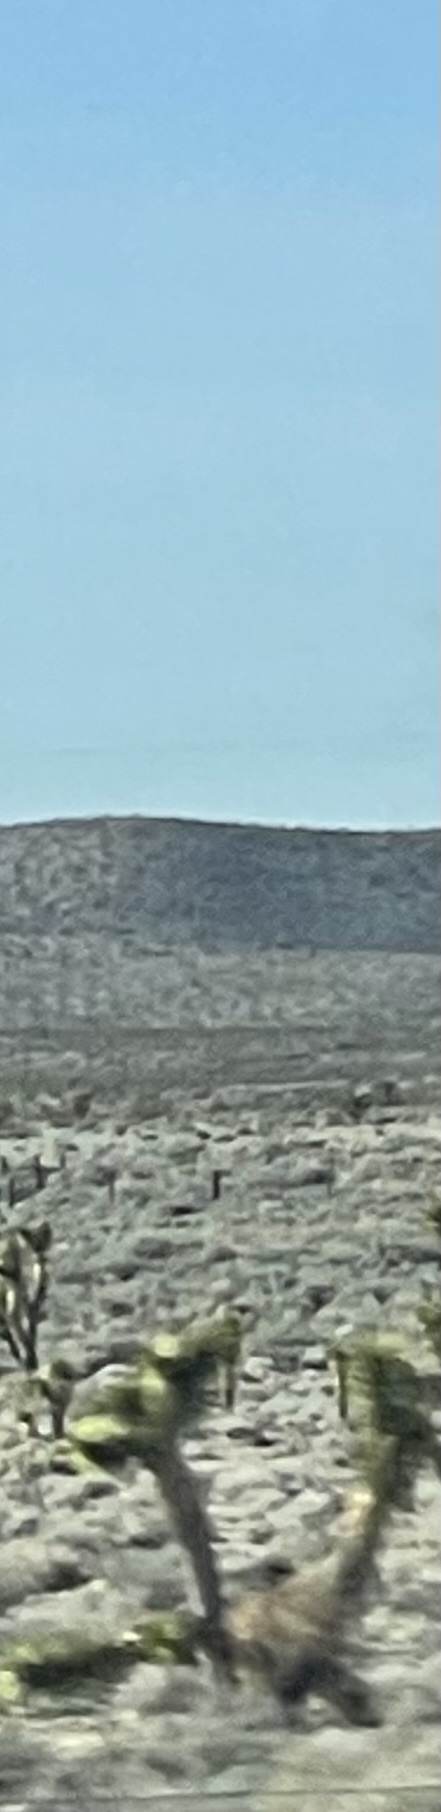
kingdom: Plantae
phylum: Tracheophyta
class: Liliopsida
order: Asparagales
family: Asparagaceae
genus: Yucca
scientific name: Yucca brevifolia
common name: Joshua tree
